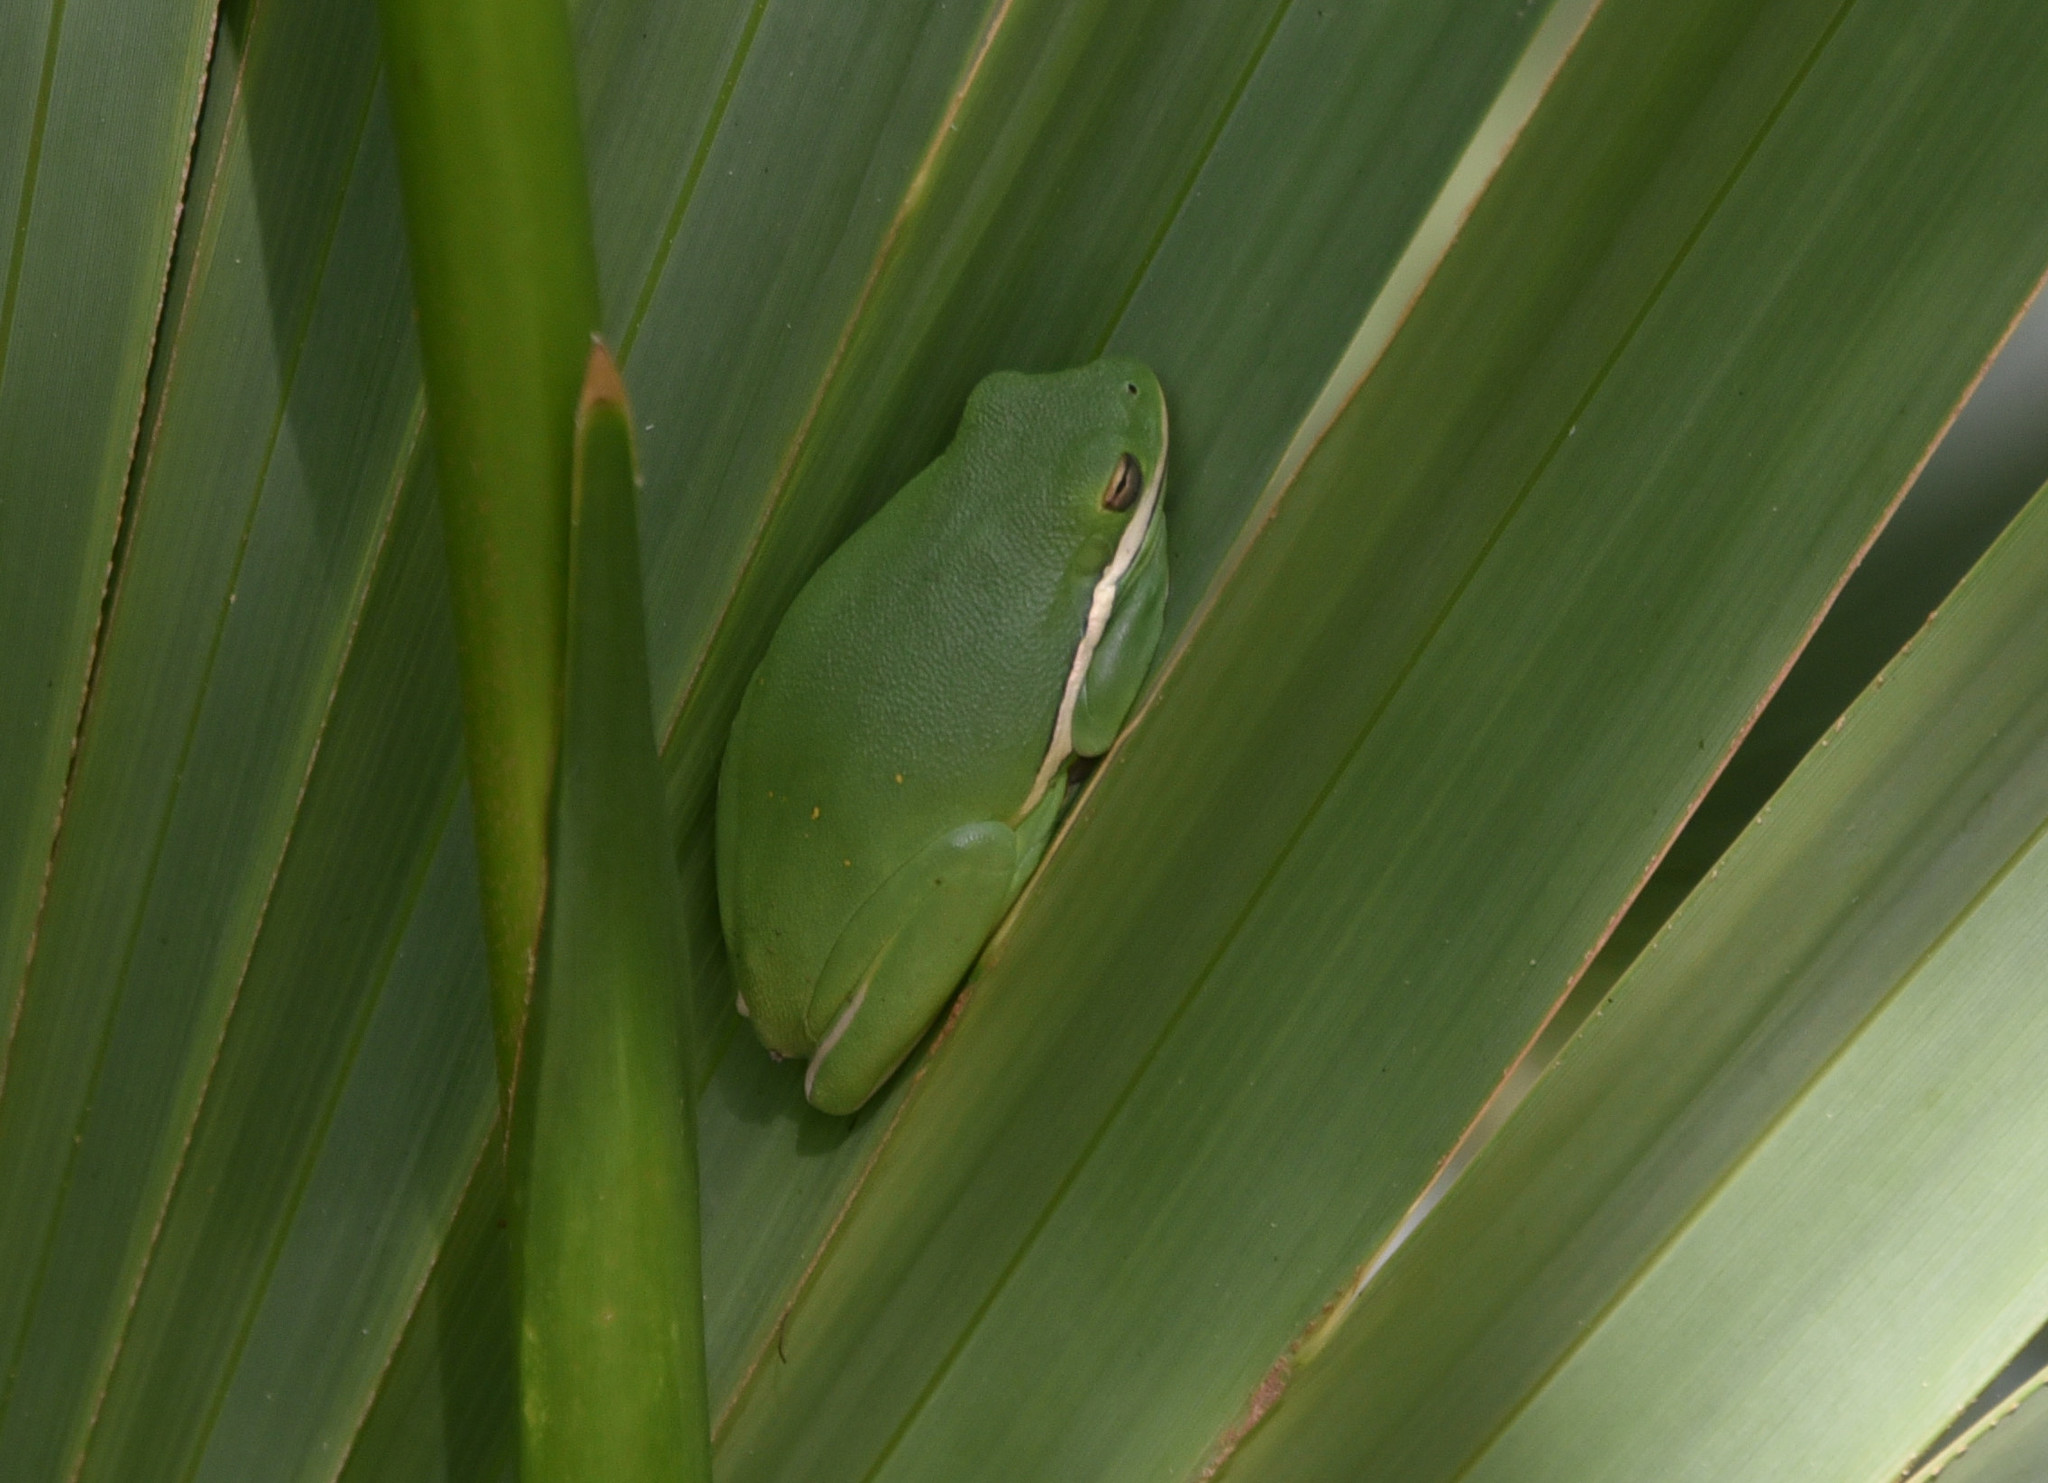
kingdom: Animalia
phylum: Chordata
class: Amphibia
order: Anura
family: Hylidae
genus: Dryophytes
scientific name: Dryophytes cinereus
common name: Green treefrog
